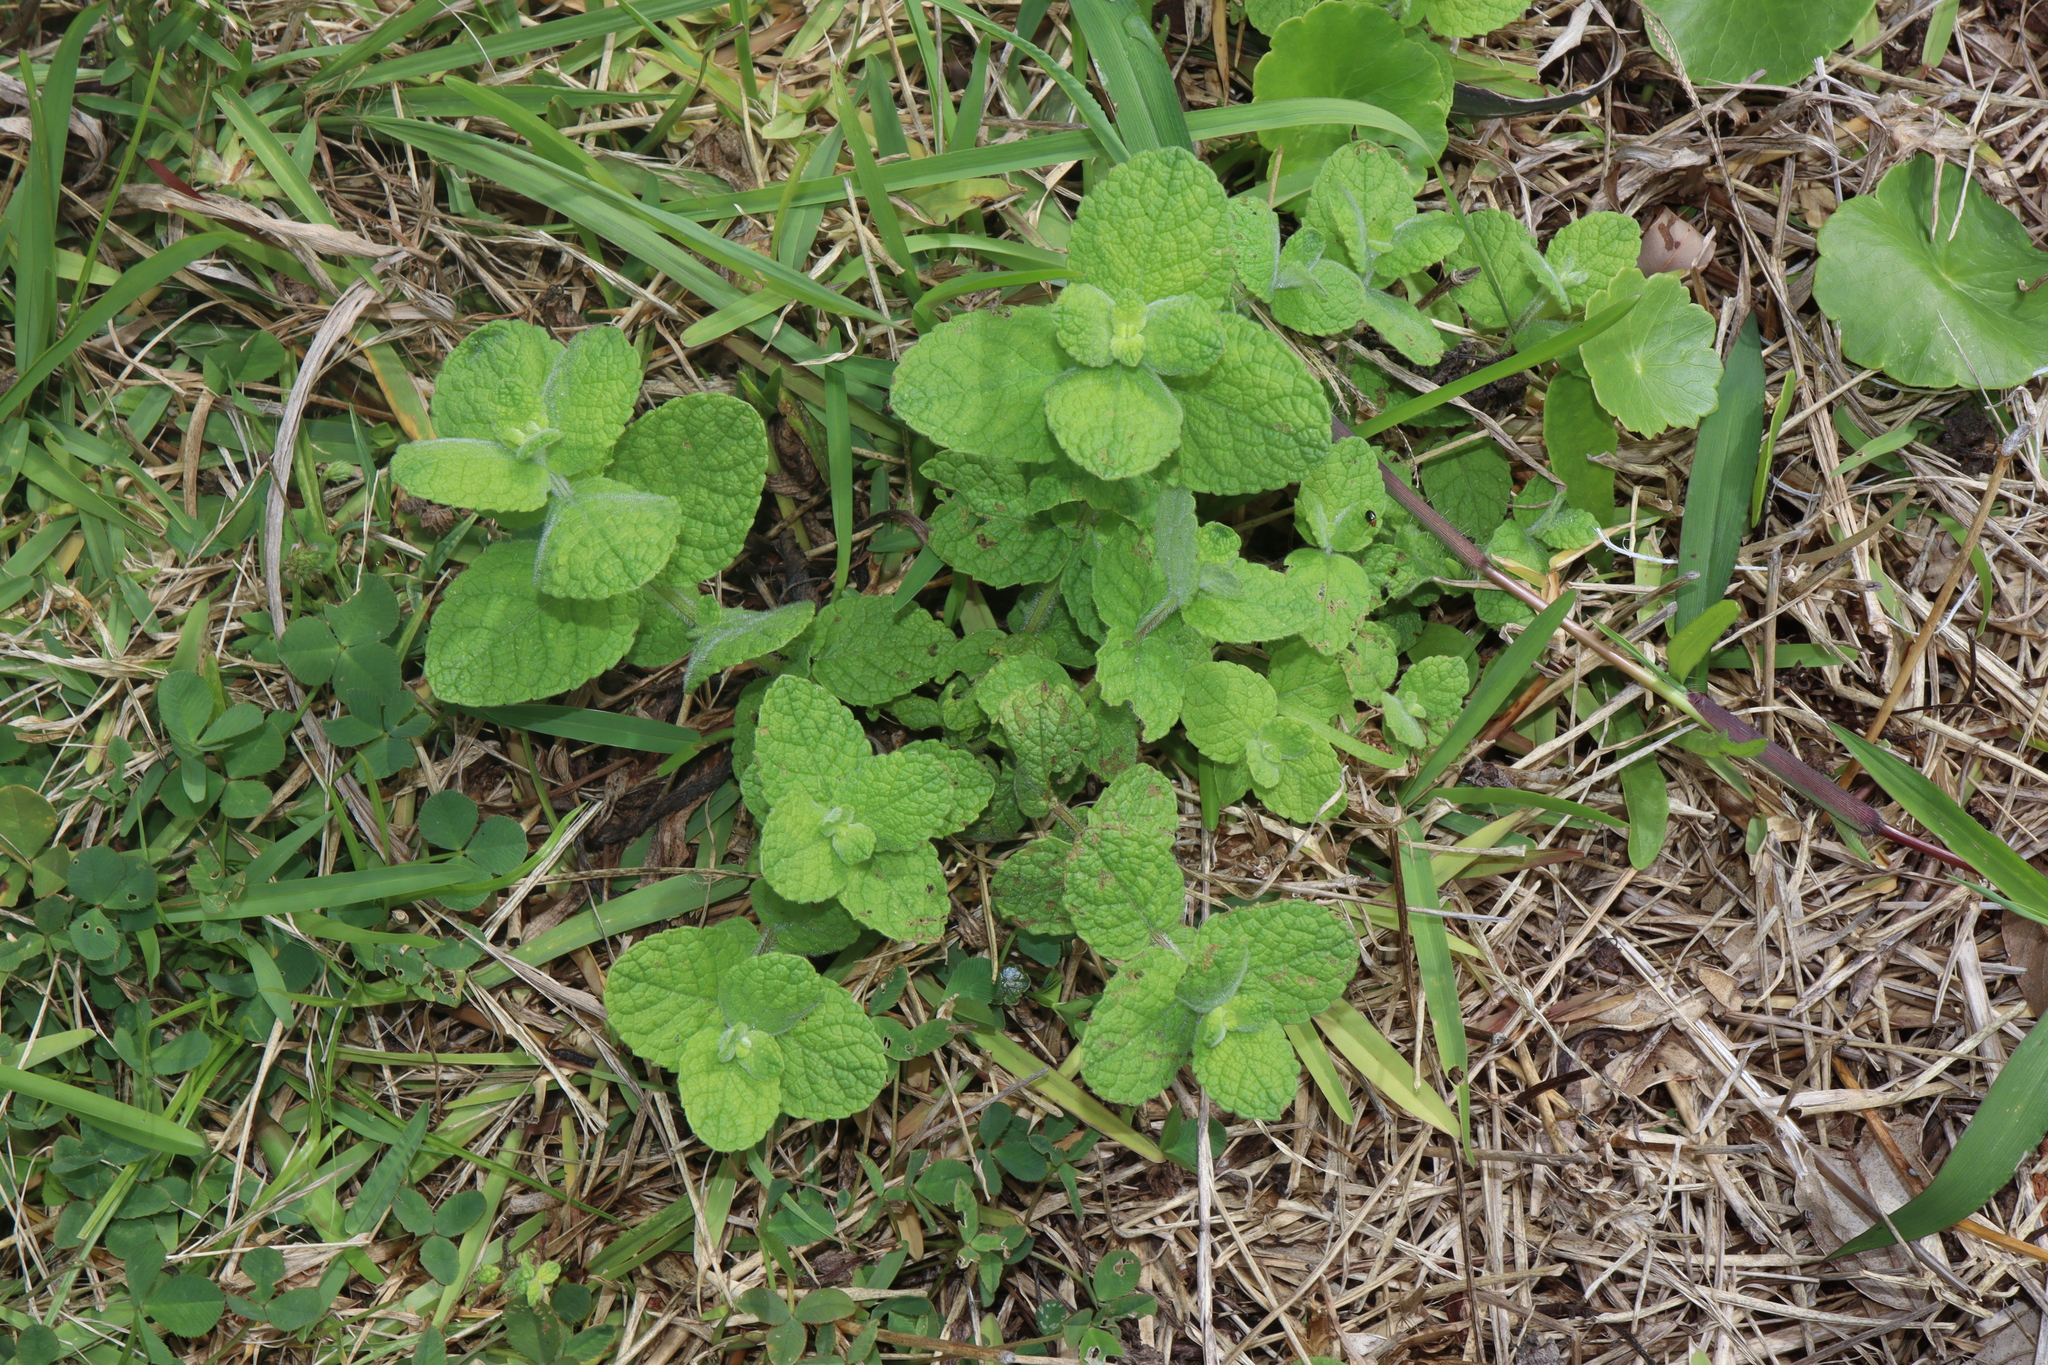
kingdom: Plantae
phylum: Tracheophyta
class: Magnoliopsida
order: Lamiales
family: Lamiaceae
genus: Mentha
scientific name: Mentha suaveolens
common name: Apple mint
